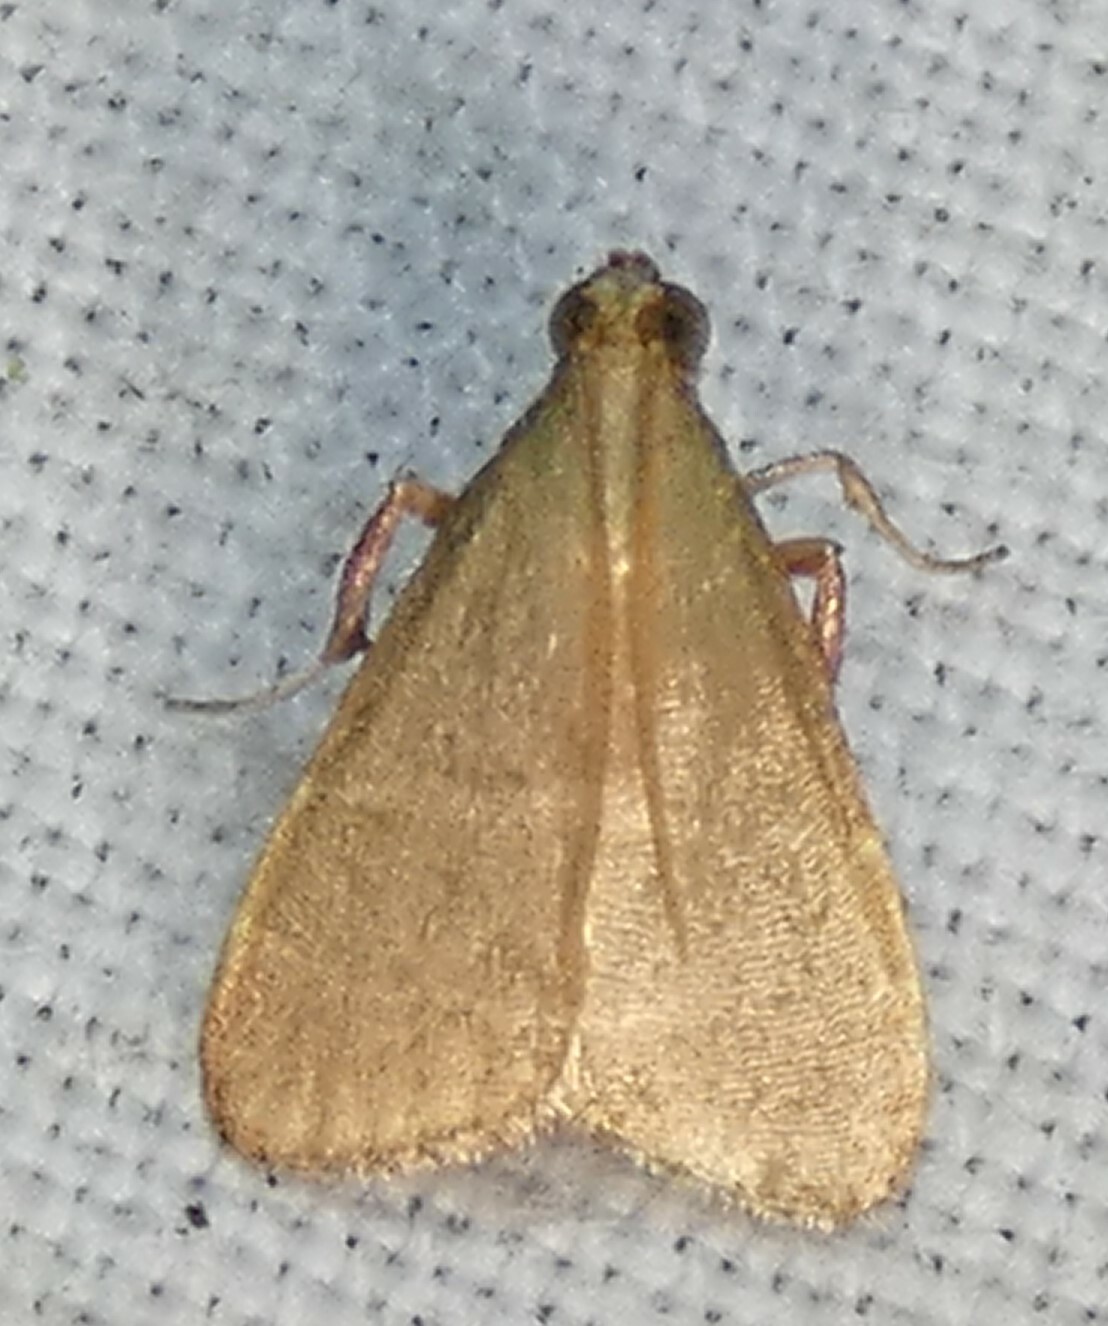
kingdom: Animalia
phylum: Arthropoda
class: Insecta
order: Lepidoptera
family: Pyralidae
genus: Arta
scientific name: Arta olivalis
